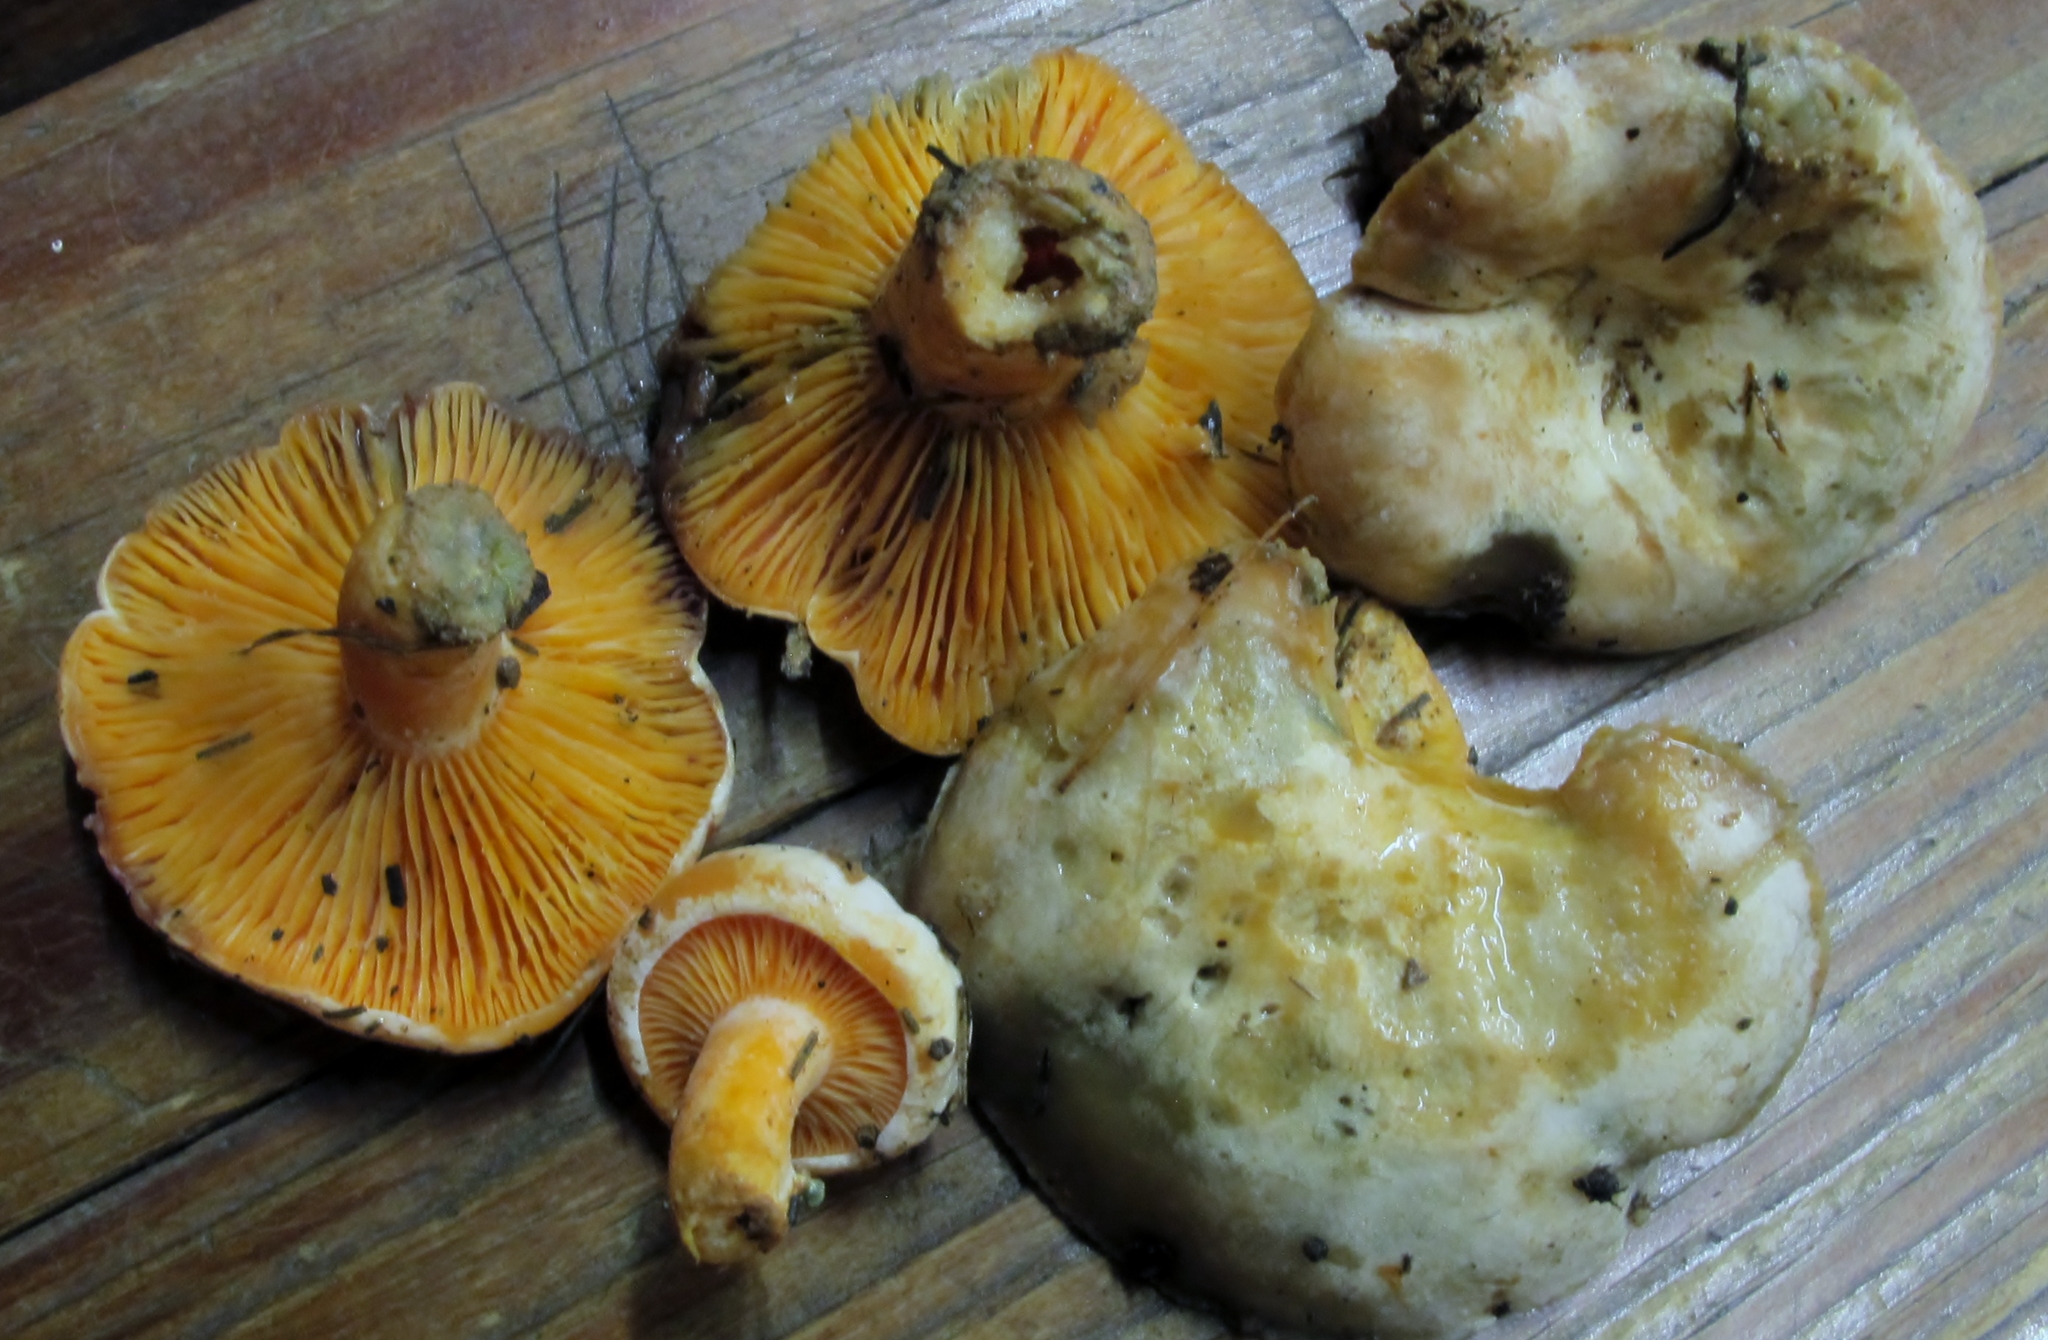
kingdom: Fungi
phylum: Basidiomycota
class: Agaricomycetes
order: Russulales
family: Russulaceae
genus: Lactarius
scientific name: Lactarius salmonicolor
